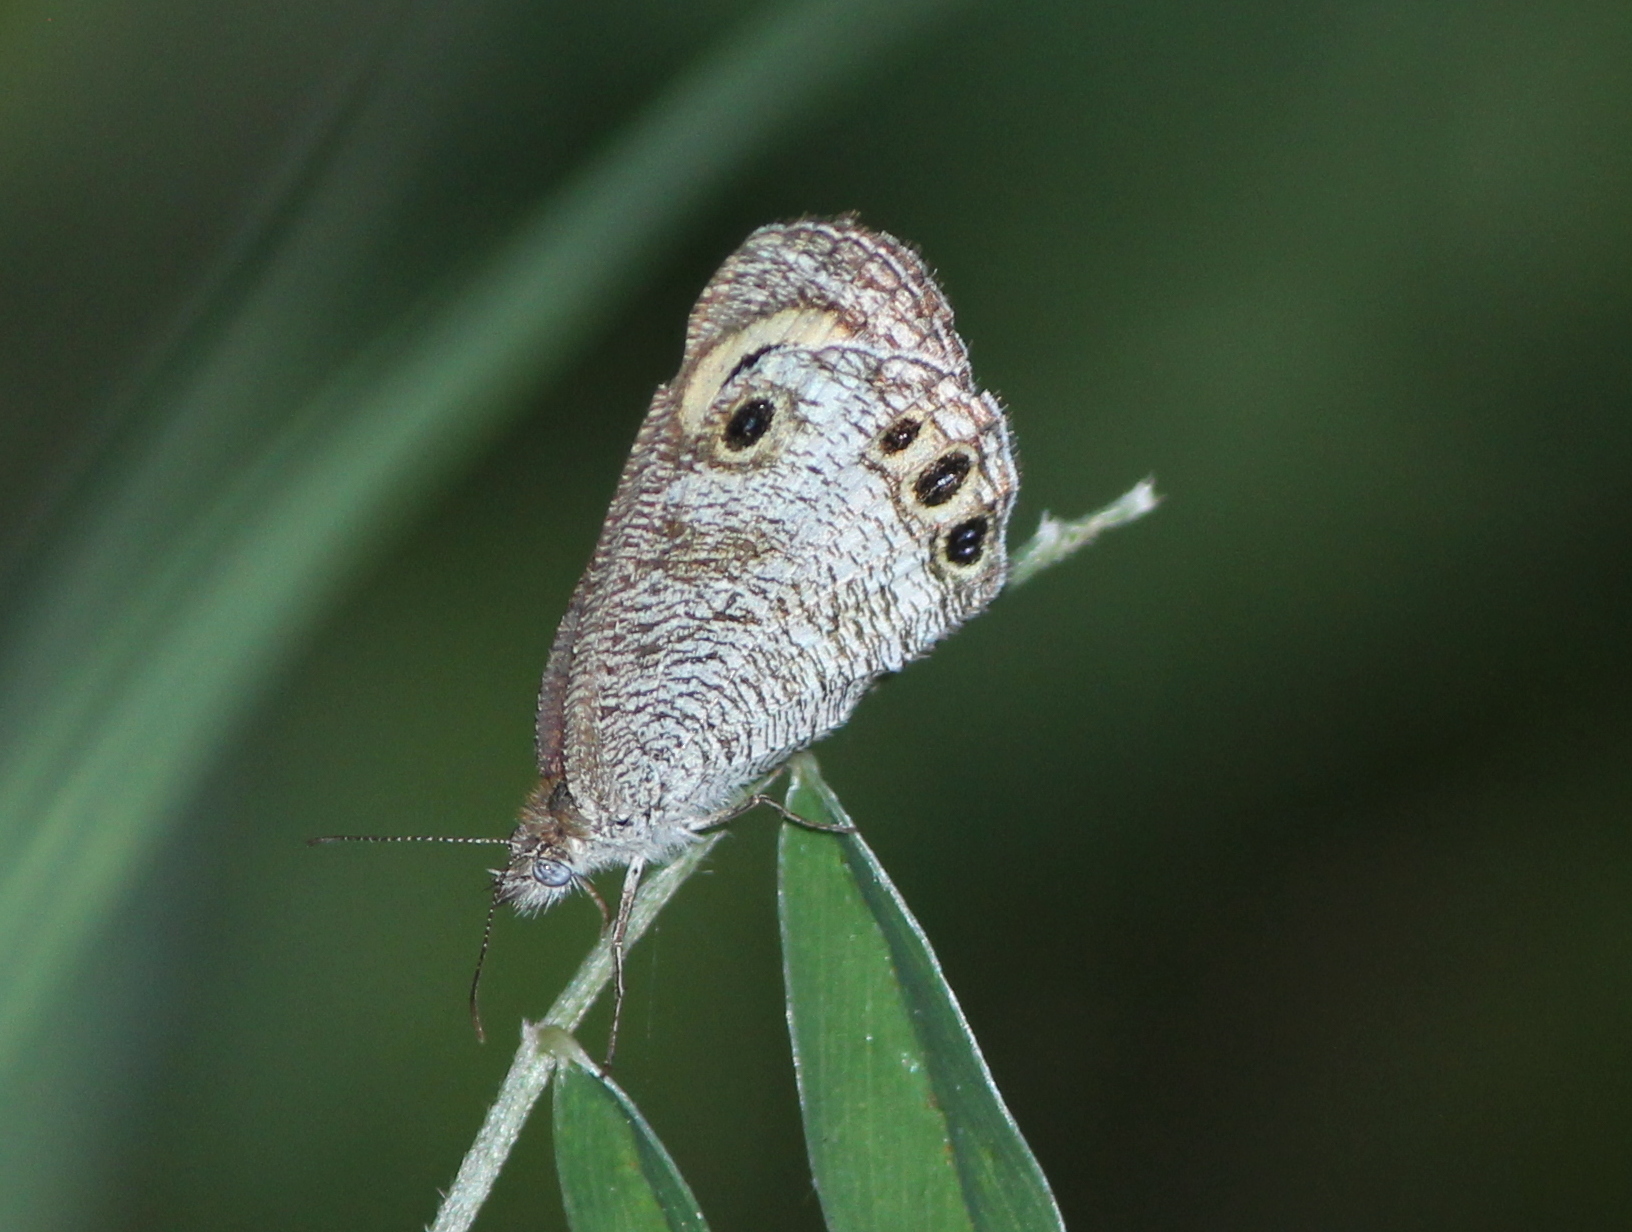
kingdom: Animalia
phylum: Arthropoda
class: Insecta
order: Lepidoptera
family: Nymphalidae
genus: Ypthima
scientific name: Ypthima ceylonica
